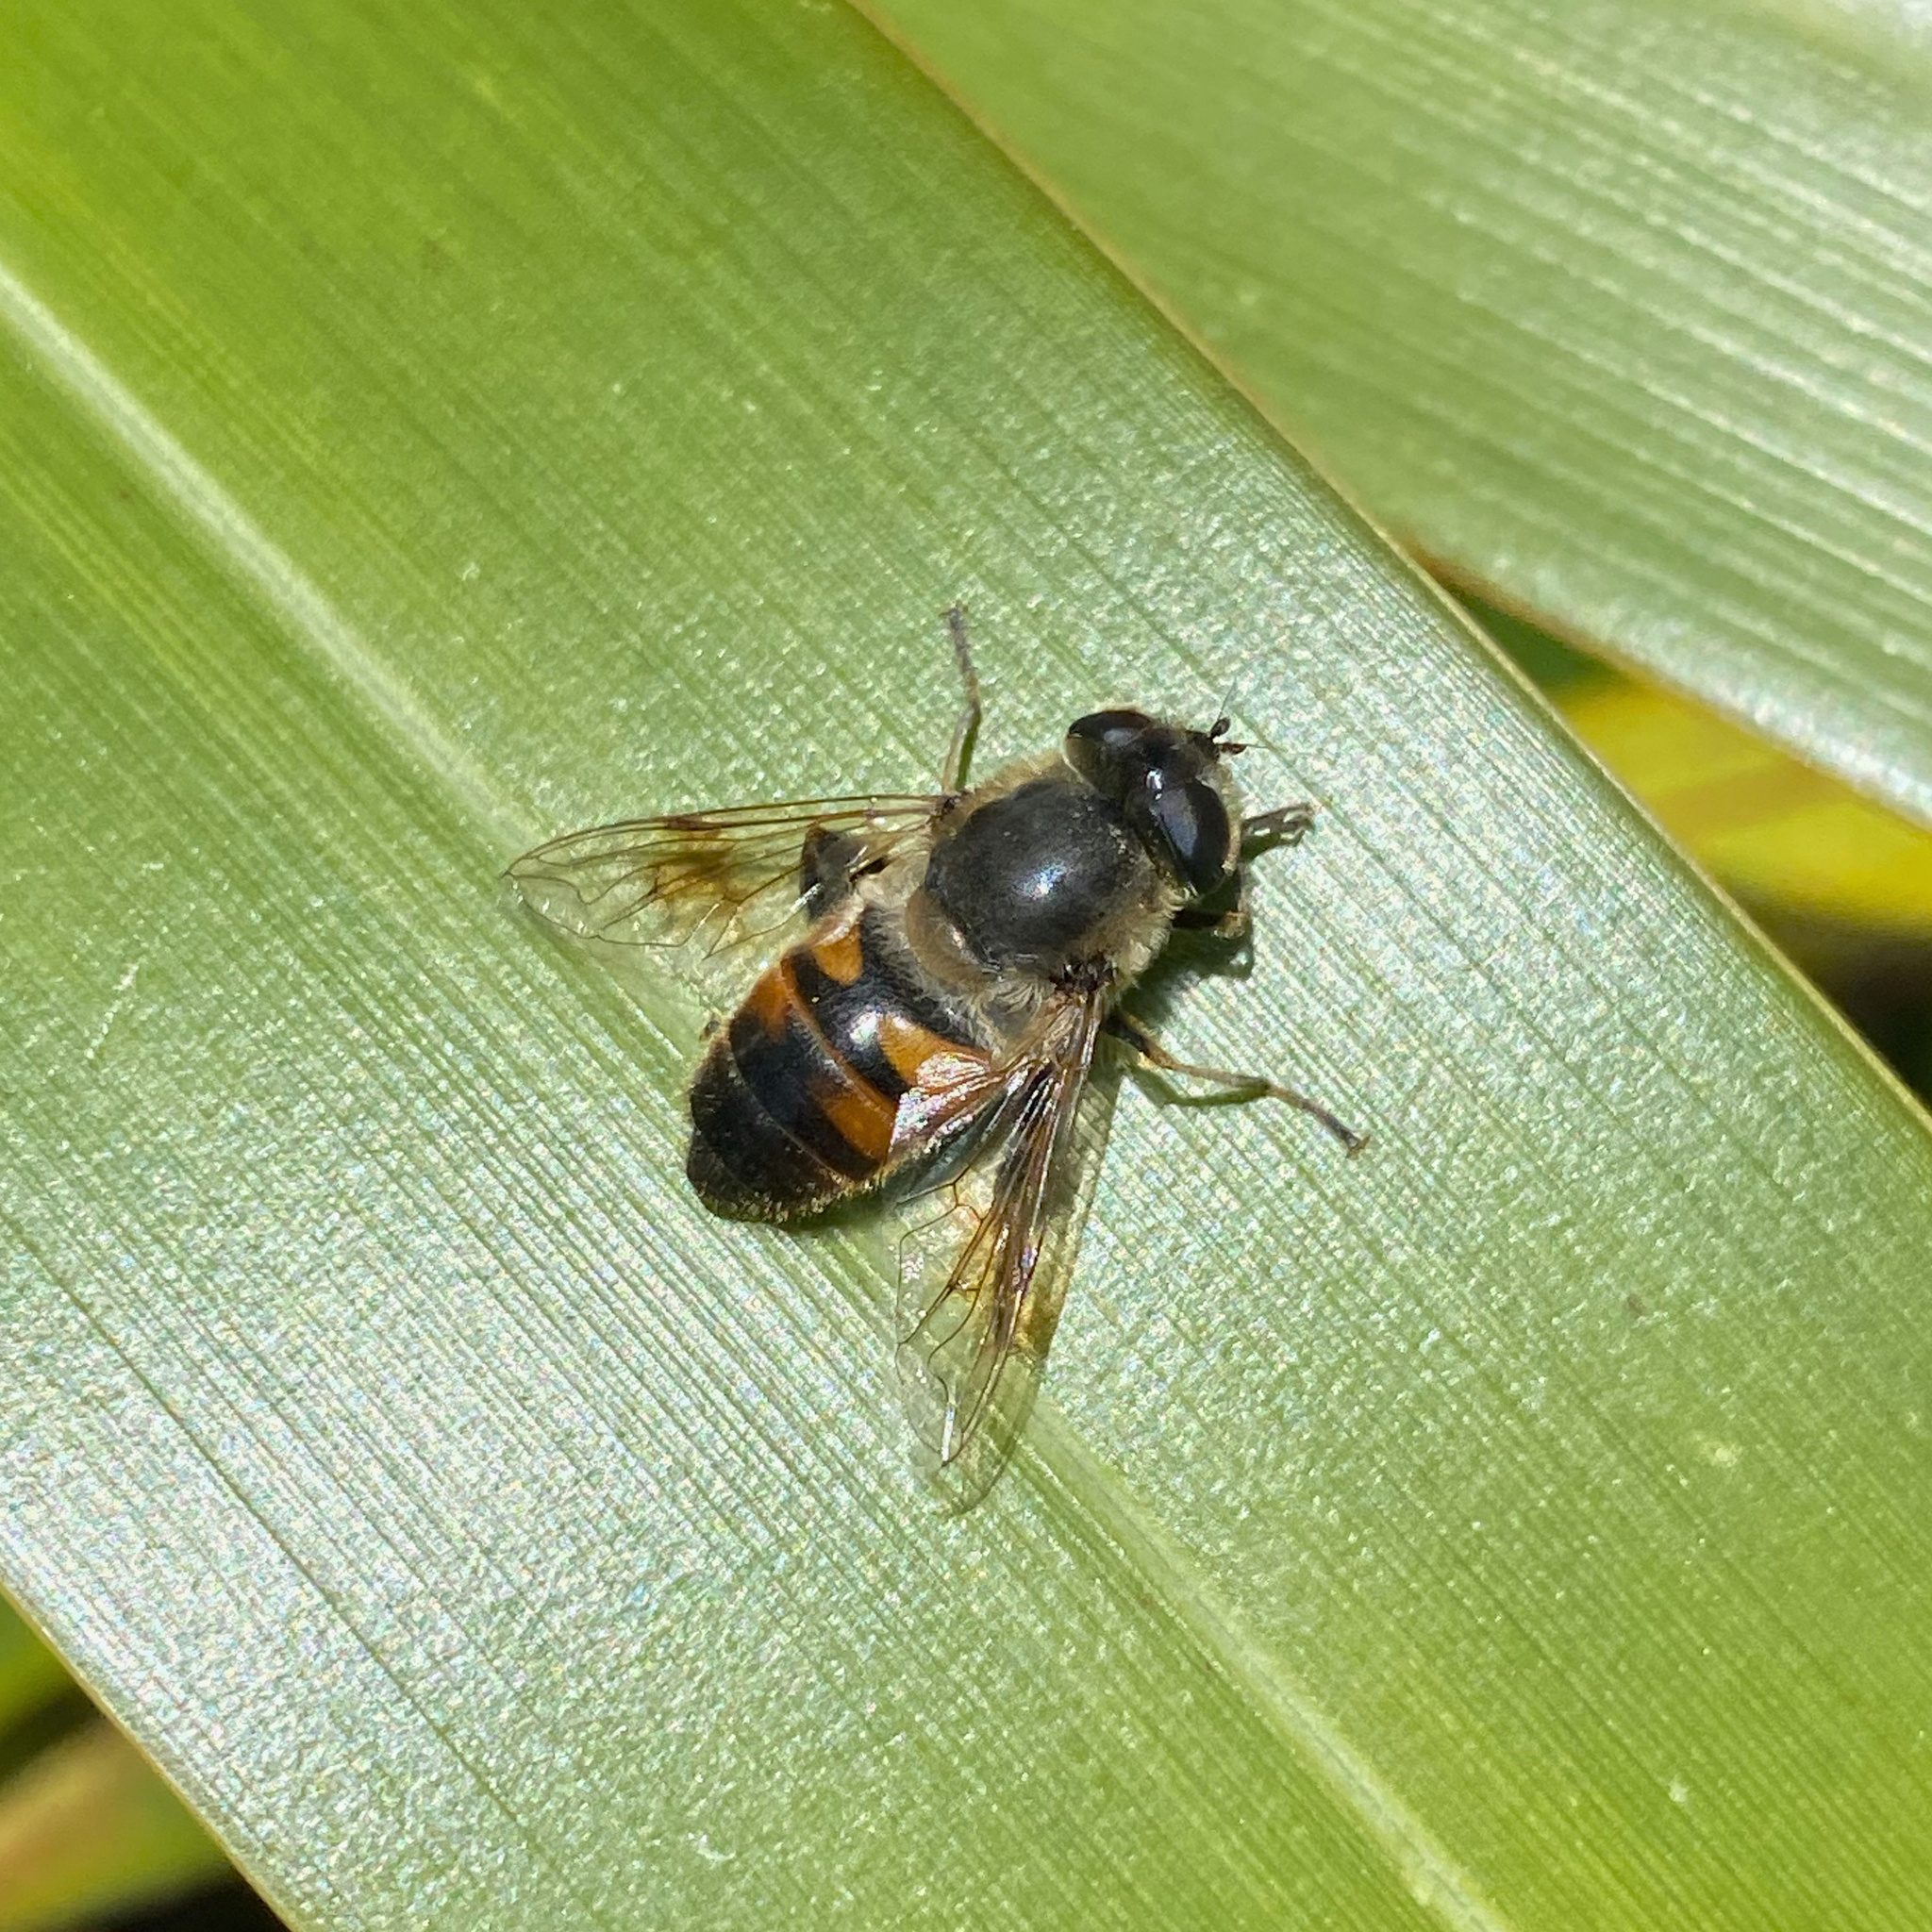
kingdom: Animalia
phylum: Arthropoda
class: Insecta
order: Diptera
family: Syrphidae
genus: Eristalis
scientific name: Eristalis tenax
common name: Drone fly
